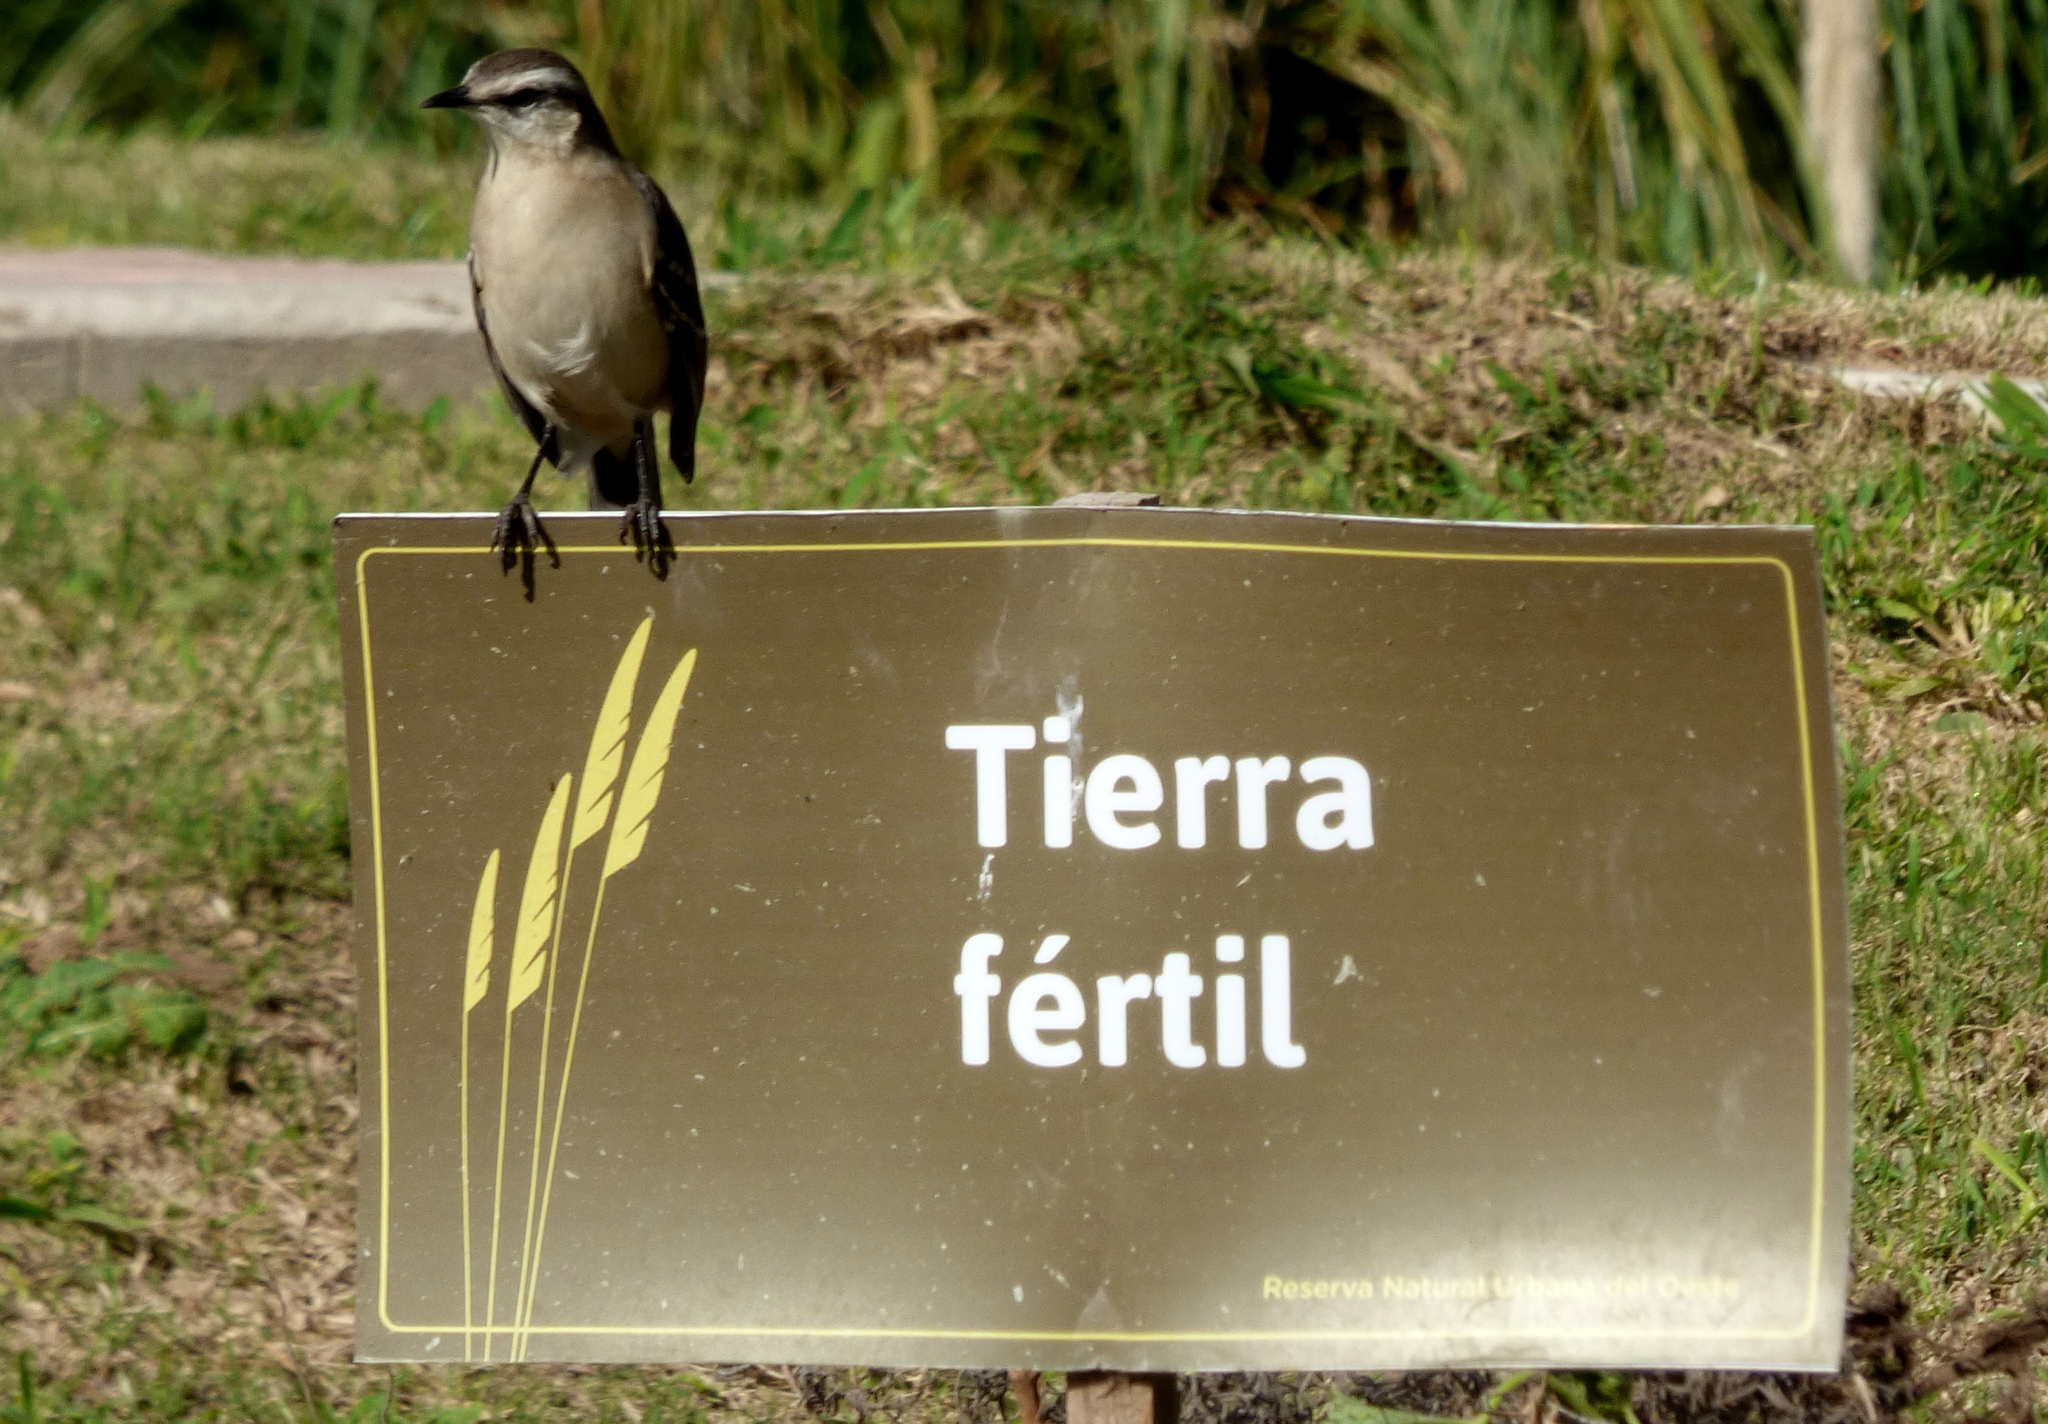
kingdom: Animalia
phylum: Chordata
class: Aves
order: Passeriformes
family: Mimidae
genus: Mimus
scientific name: Mimus saturninus
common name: Chalk-browed mockingbird
